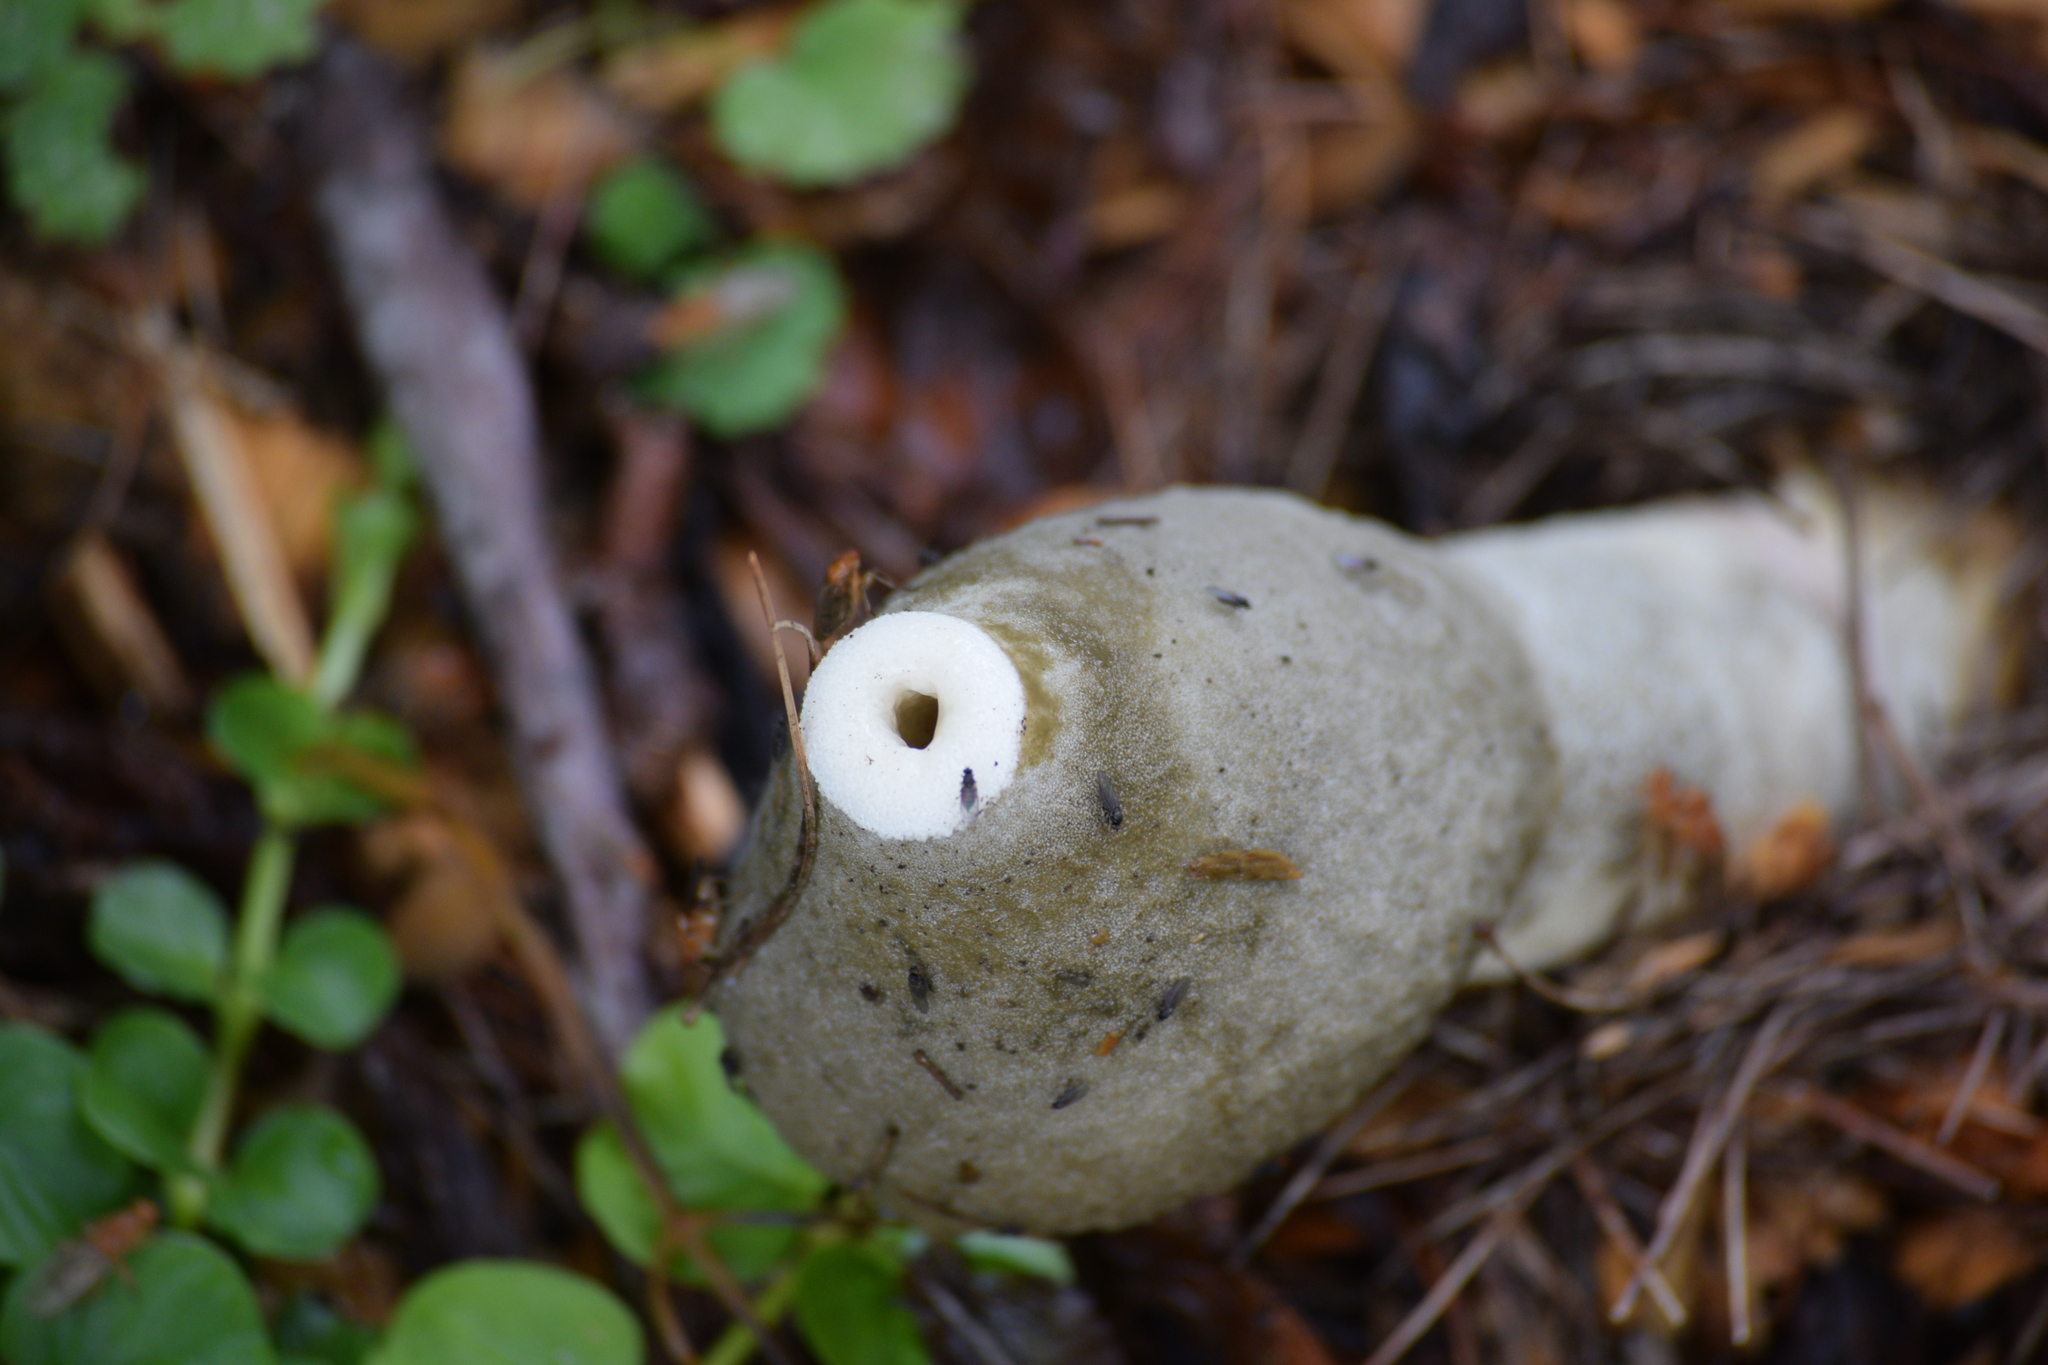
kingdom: Fungi
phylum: Basidiomycota
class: Agaricomycetes
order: Phallales
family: Phallaceae
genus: Phallus
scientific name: Phallus ravenelii
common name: Ravenel's stinkhorn
